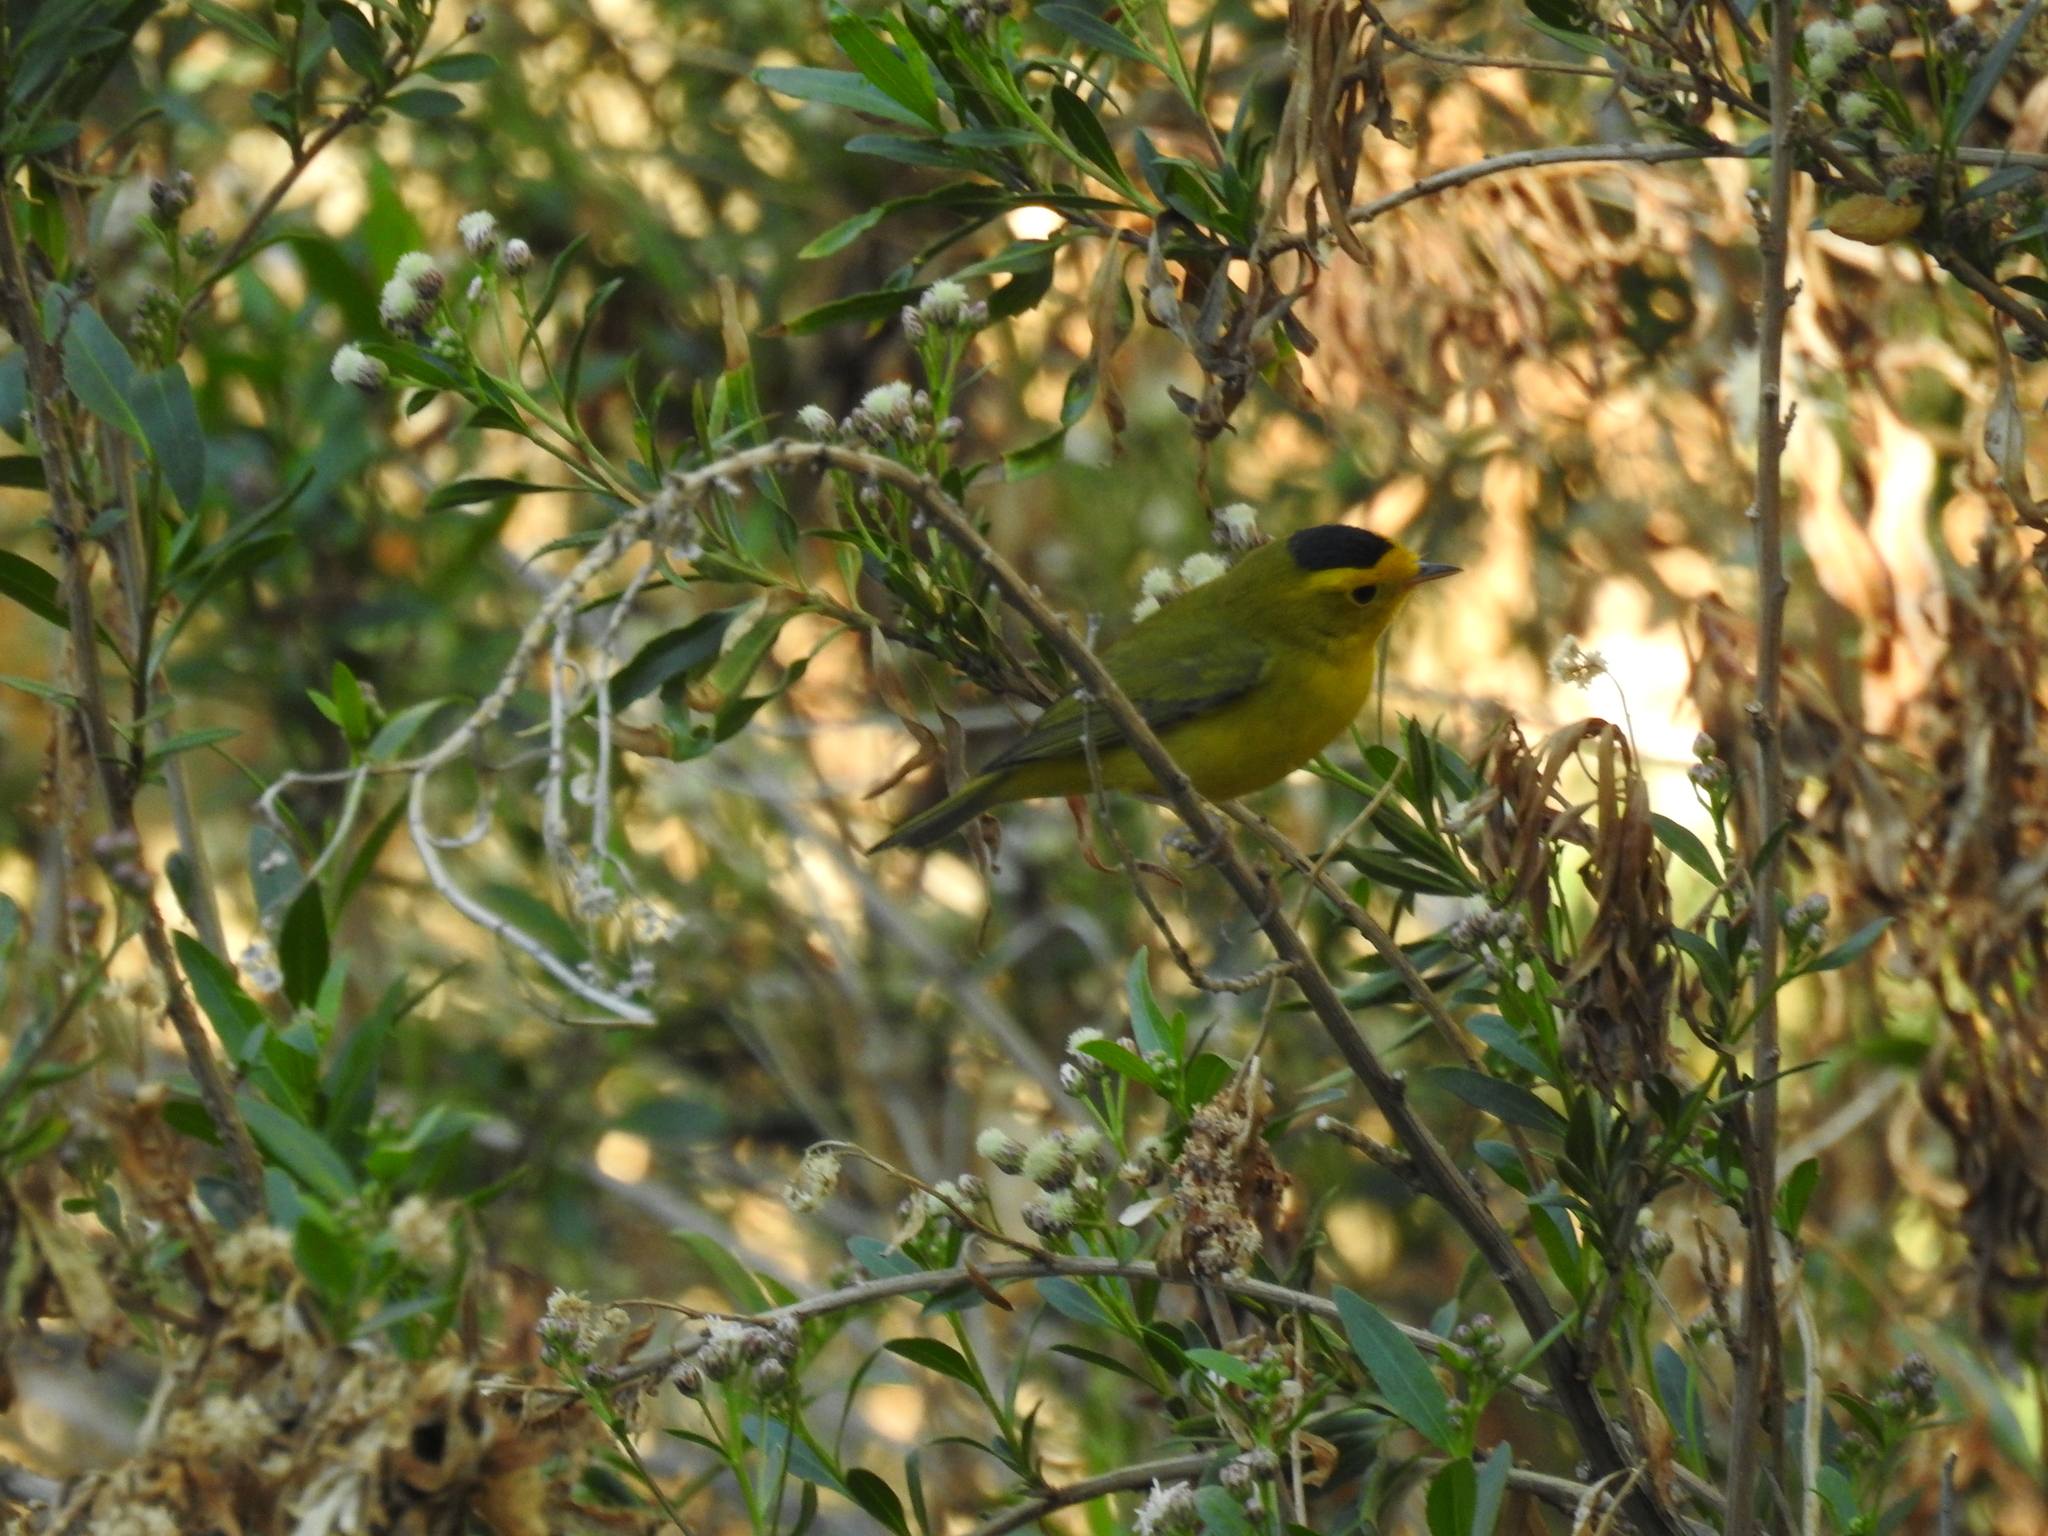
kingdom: Animalia
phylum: Chordata
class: Aves
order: Passeriformes
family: Parulidae
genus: Cardellina
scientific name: Cardellina pusilla
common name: Wilson's warbler
